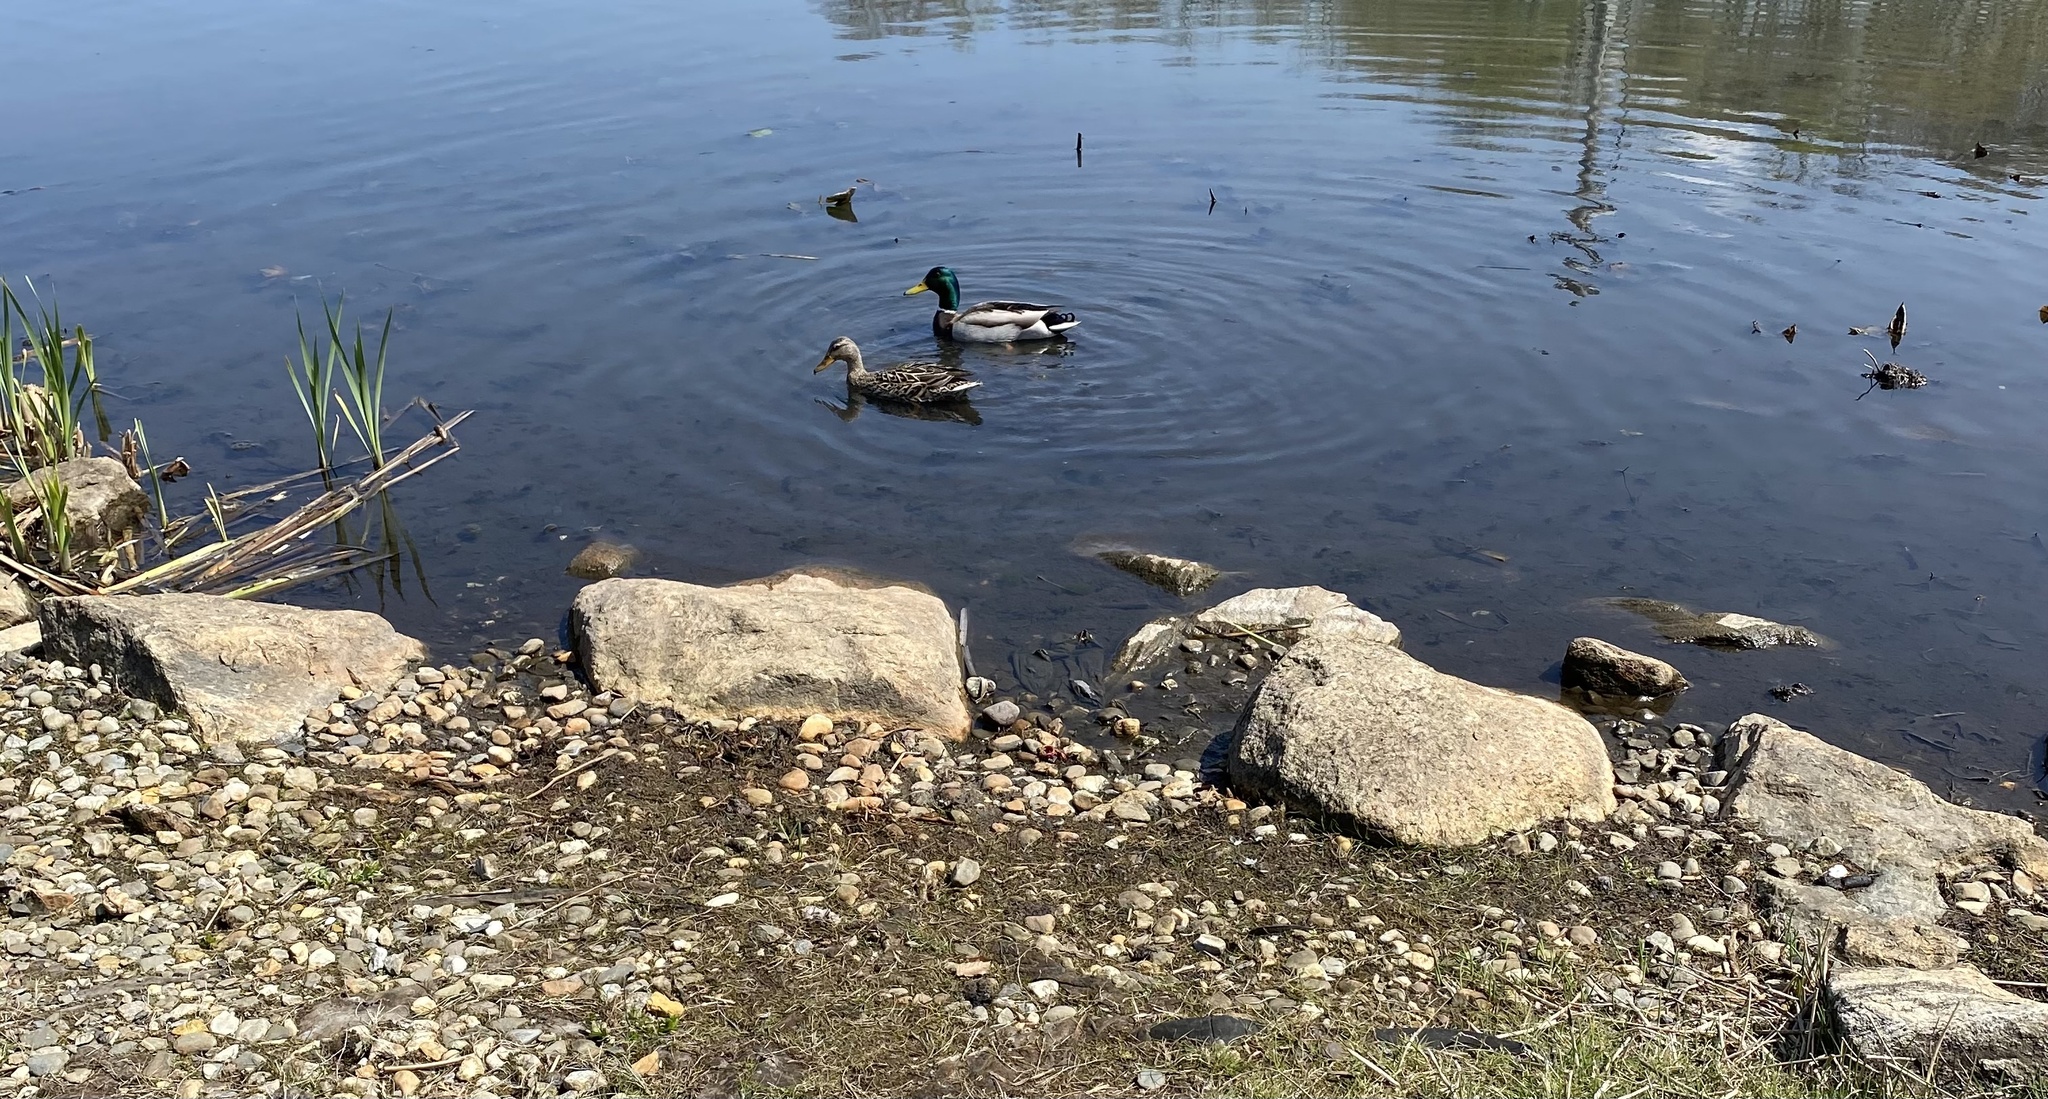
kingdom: Animalia
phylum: Chordata
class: Aves
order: Anseriformes
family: Anatidae
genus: Anas
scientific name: Anas platyrhynchos
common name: Mallard
